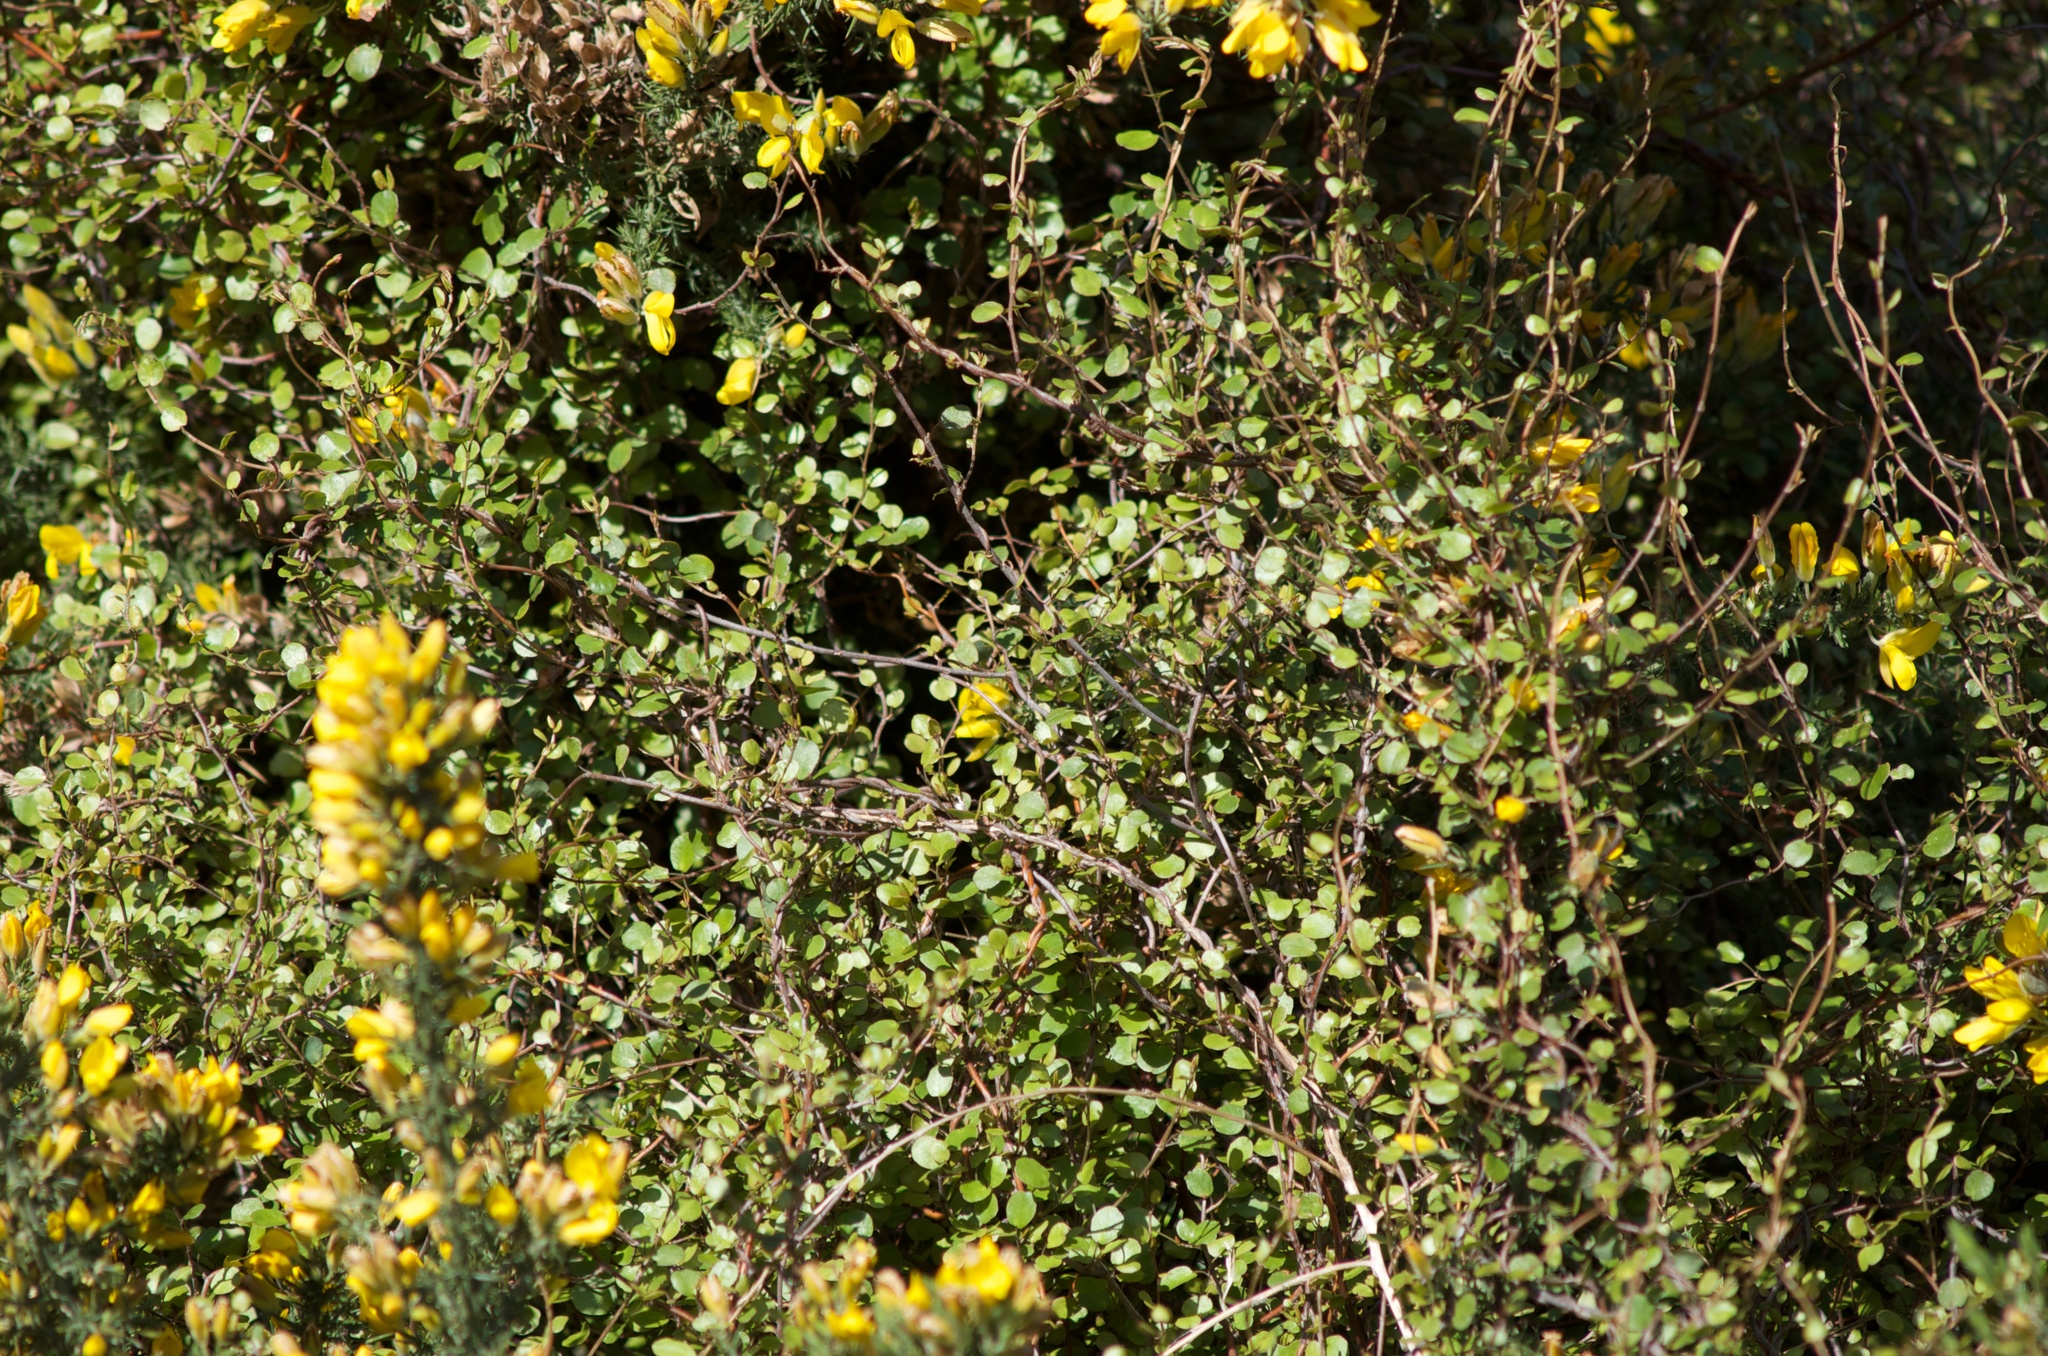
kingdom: Plantae
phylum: Tracheophyta
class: Magnoliopsida
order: Caryophyllales
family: Polygonaceae
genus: Muehlenbeckia
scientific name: Muehlenbeckia complexa
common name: Wireplant
